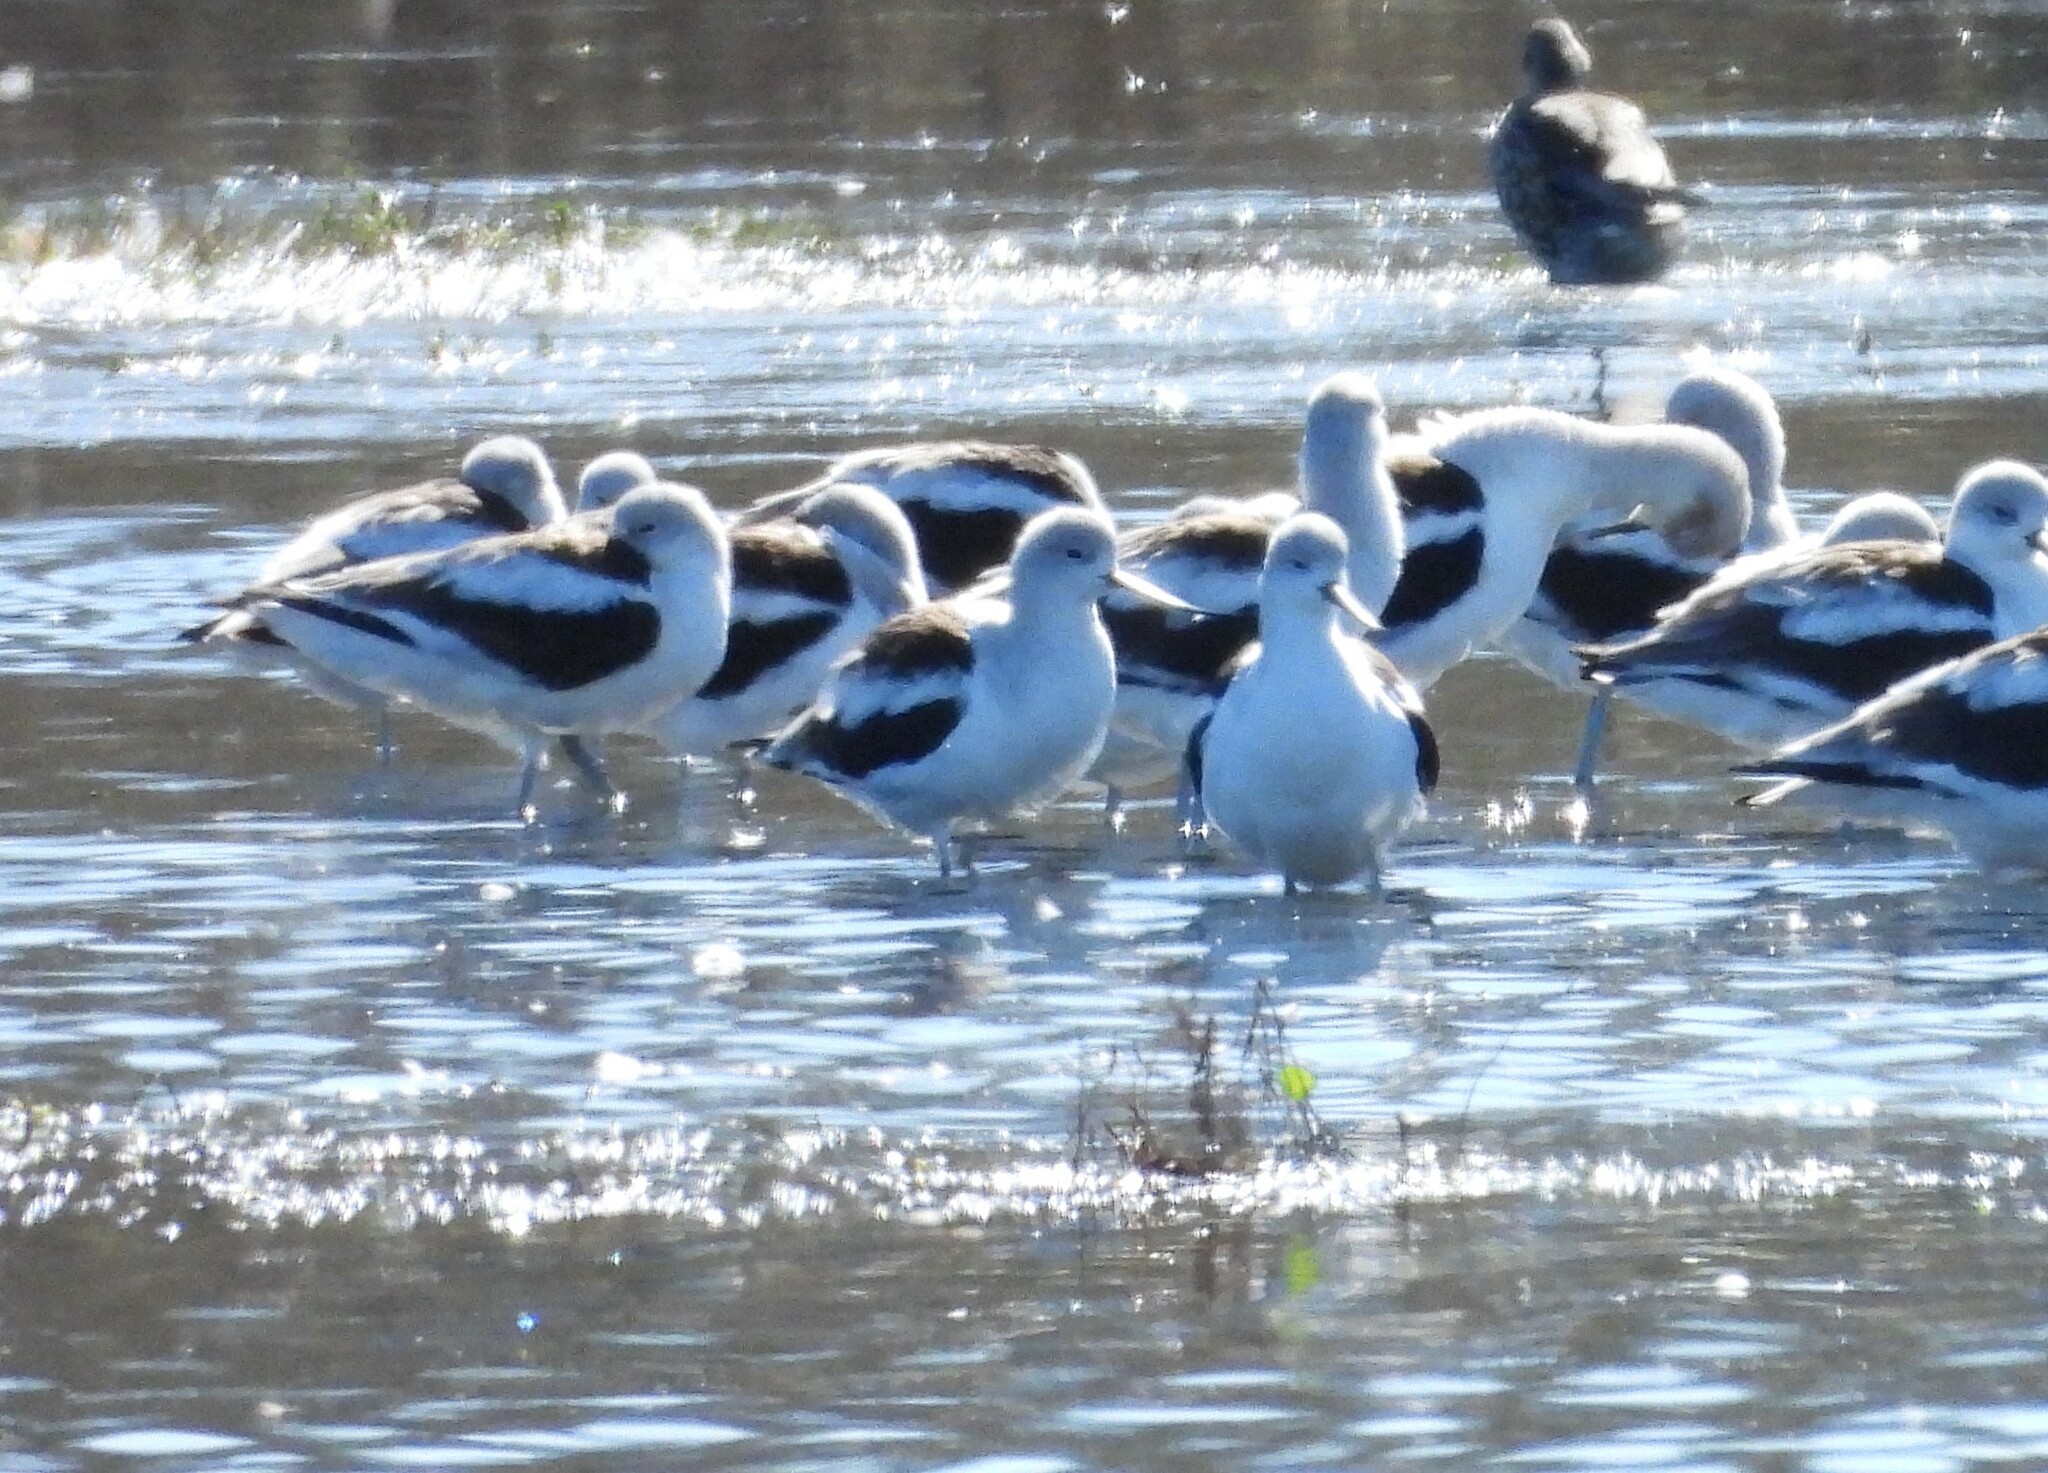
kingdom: Animalia
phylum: Chordata
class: Aves
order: Charadriiformes
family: Recurvirostridae
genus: Recurvirostra
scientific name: Recurvirostra americana
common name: American avocet
